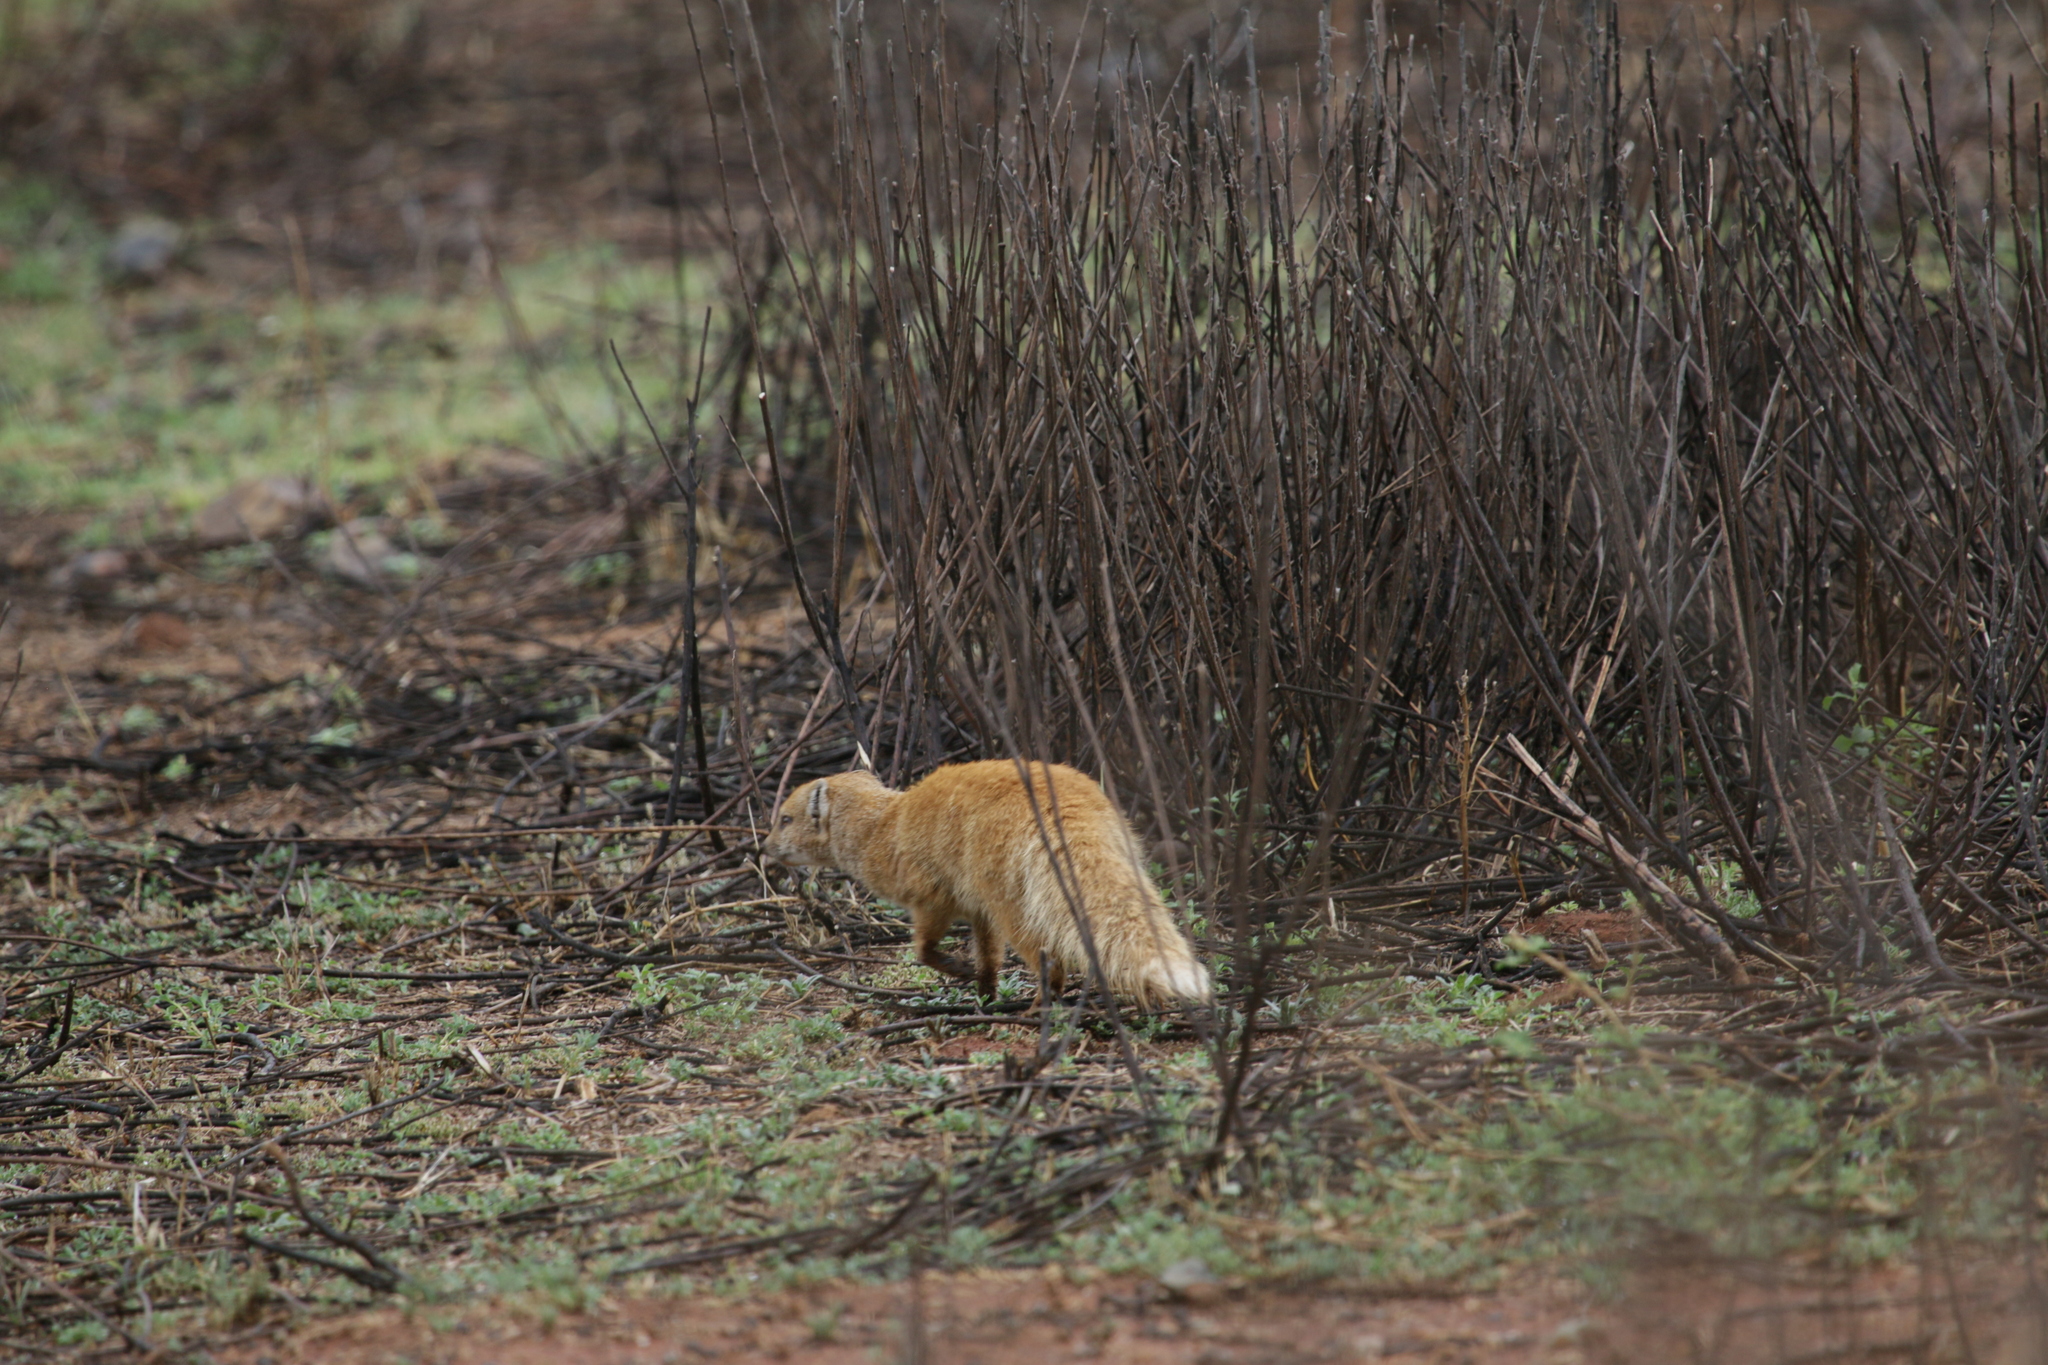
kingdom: Animalia
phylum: Chordata
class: Mammalia
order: Carnivora
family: Herpestidae
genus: Cynictis
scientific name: Cynictis penicillata
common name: Yellow mongoose
